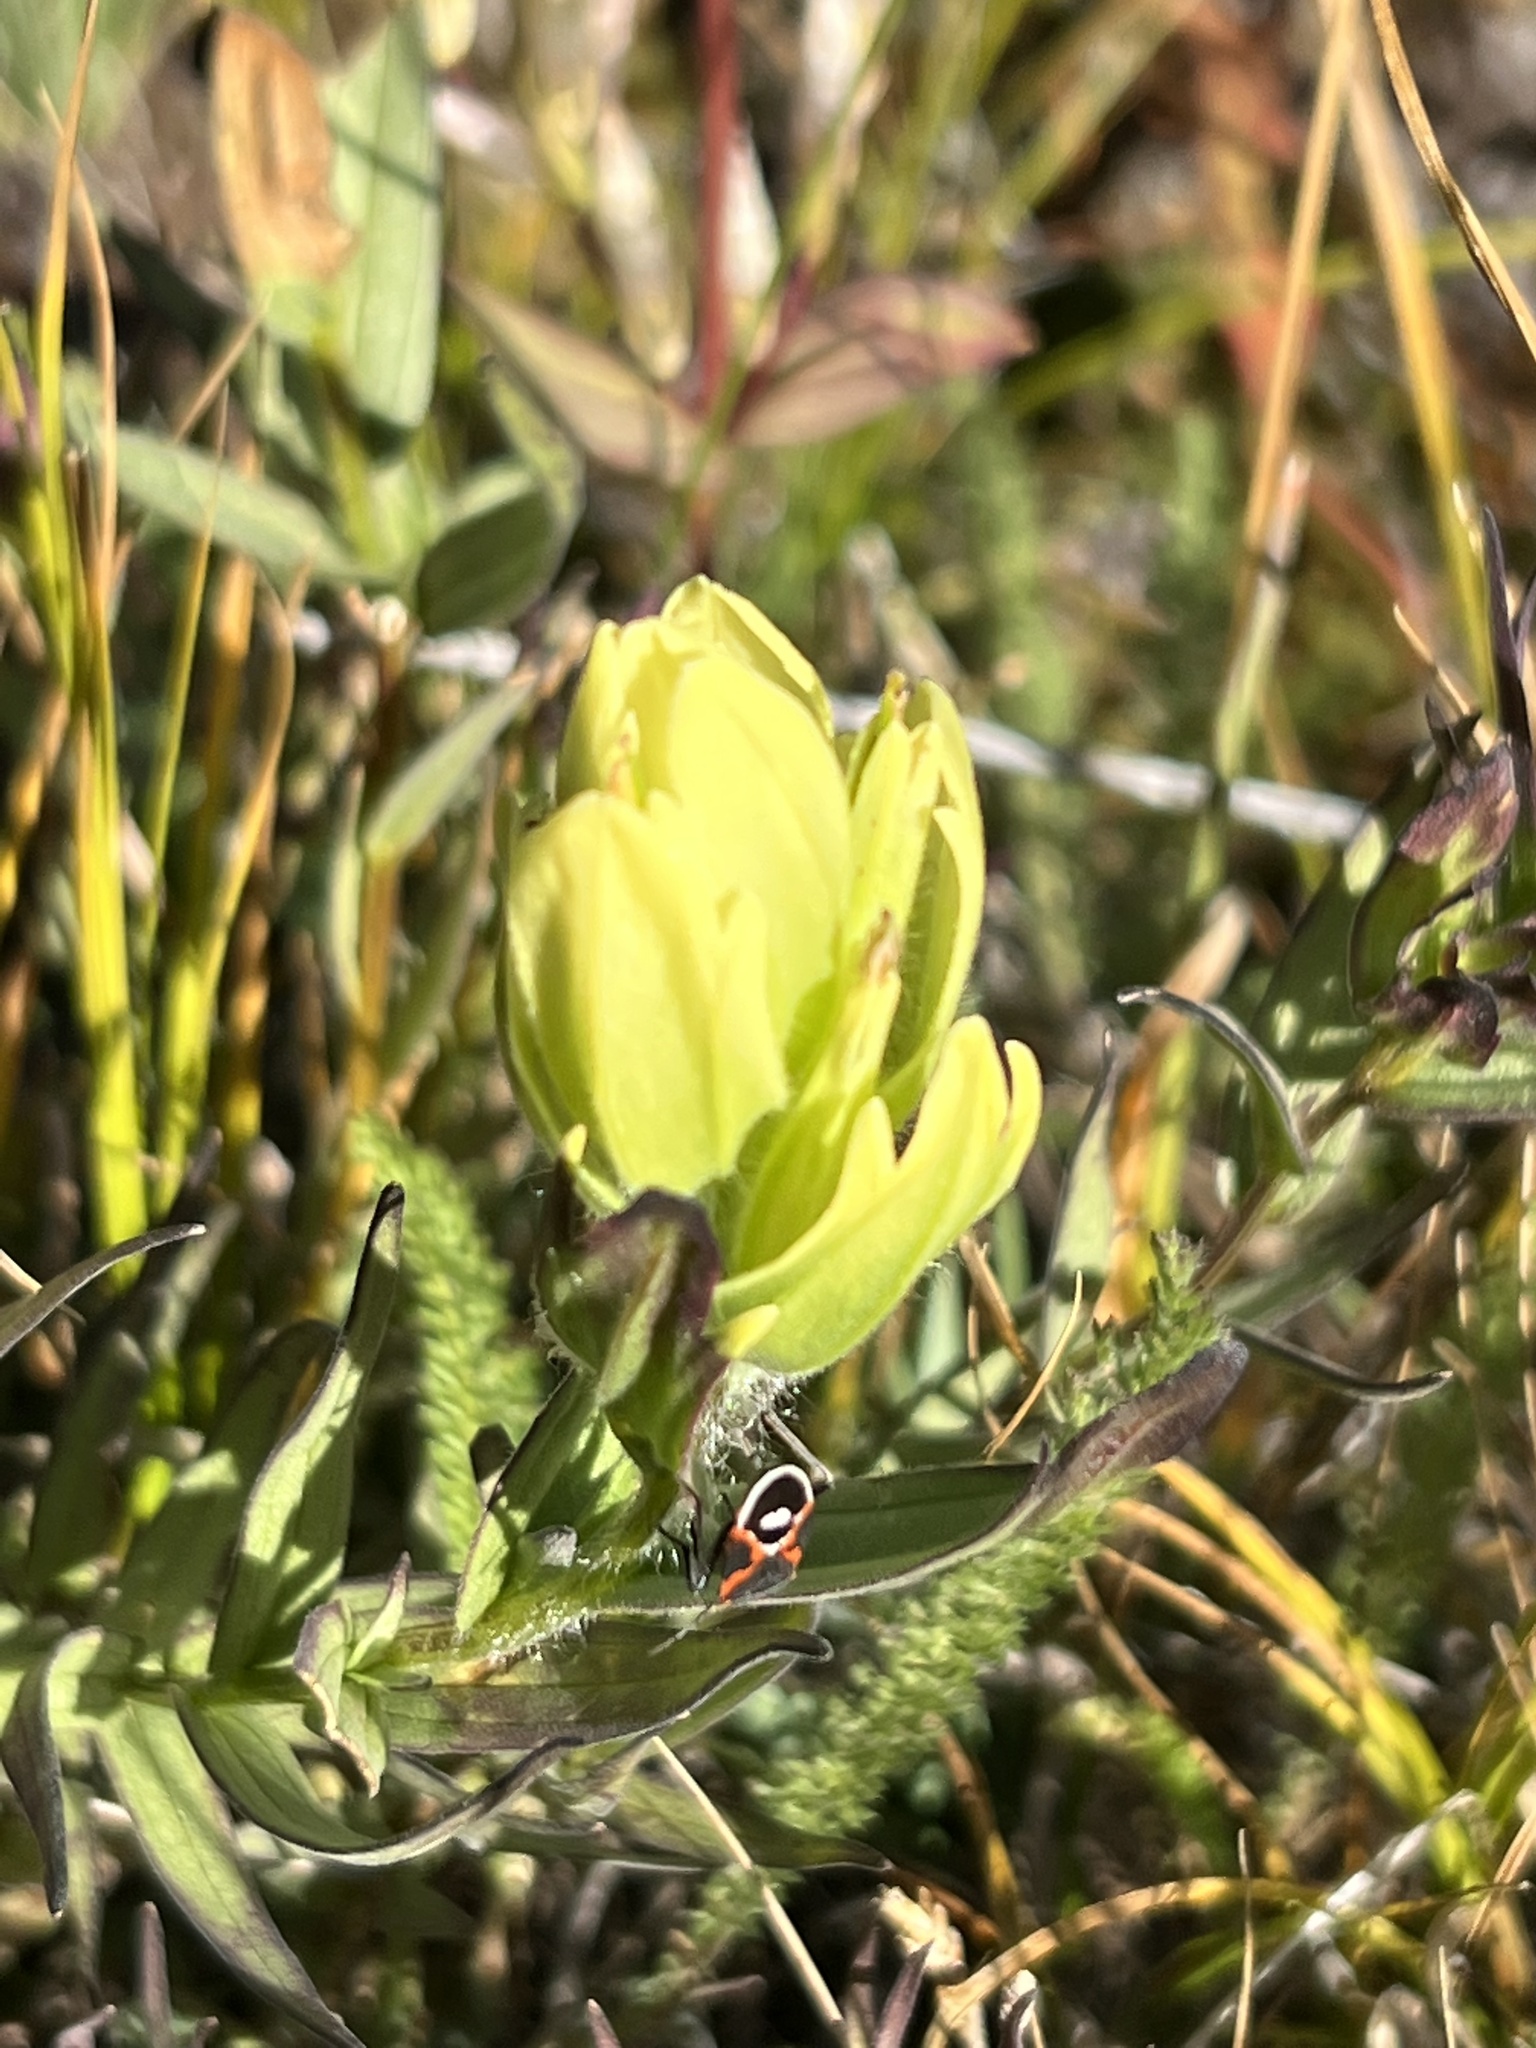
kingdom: Animalia
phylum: Arthropoda
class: Insecta
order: Hemiptera
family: Lygaeidae
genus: Lygaeus
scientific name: Lygaeus kalmii
